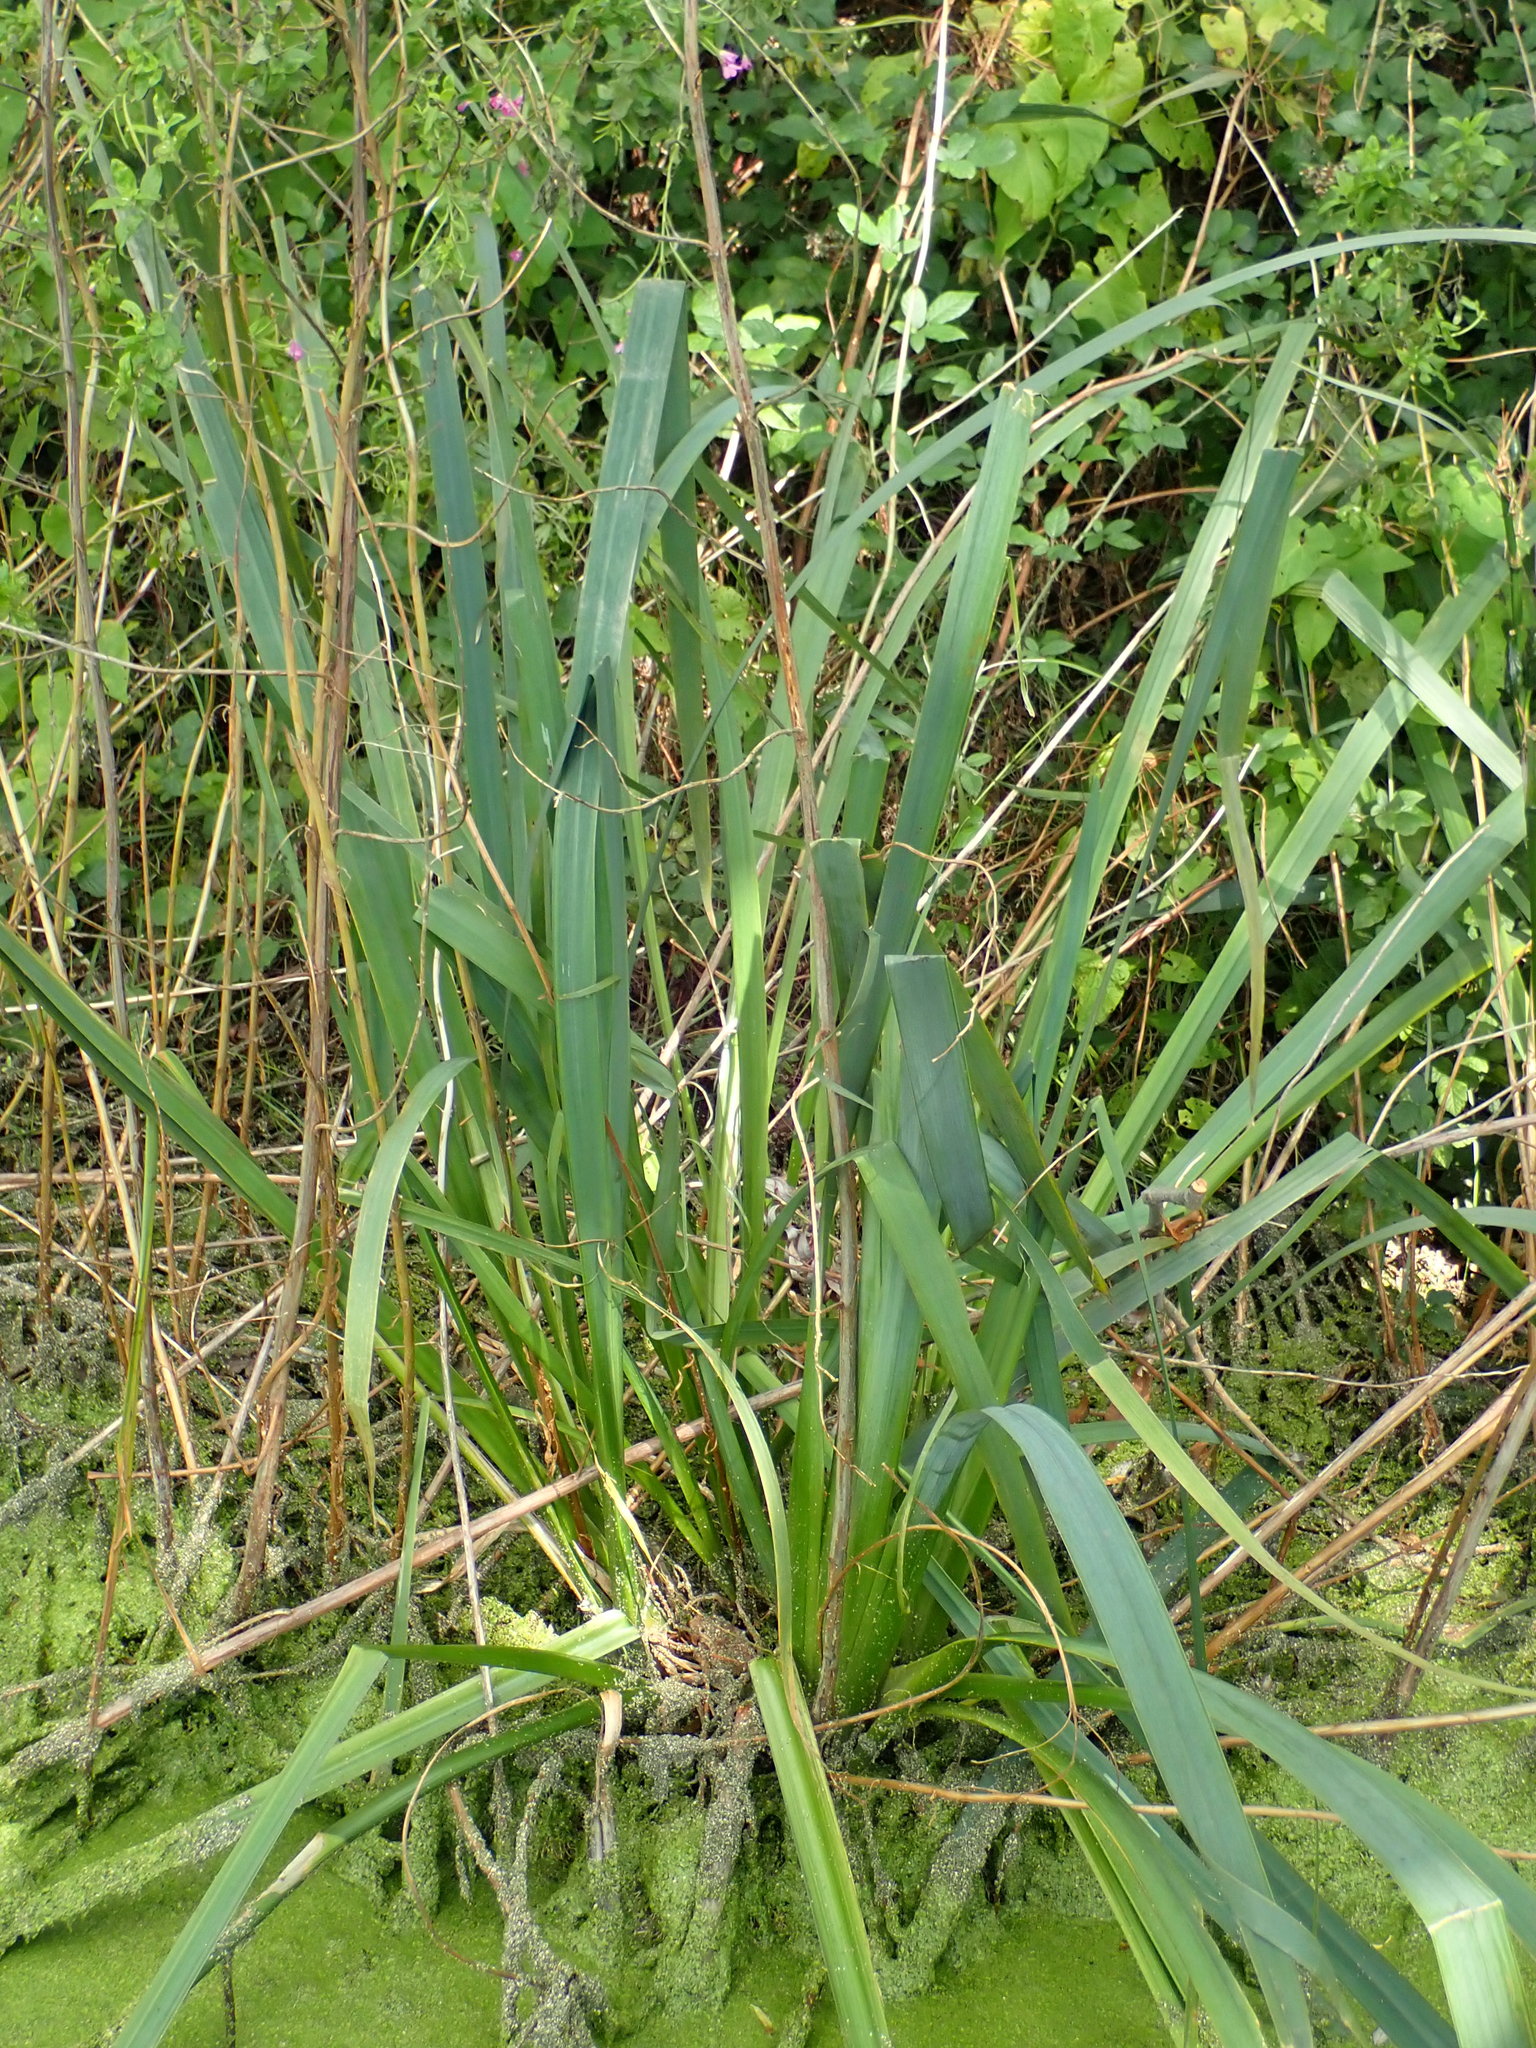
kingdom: Plantae
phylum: Tracheophyta
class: Liliopsida
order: Asparagales
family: Iridaceae
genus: Iris
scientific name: Iris pseudacorus
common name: Yellow flag
